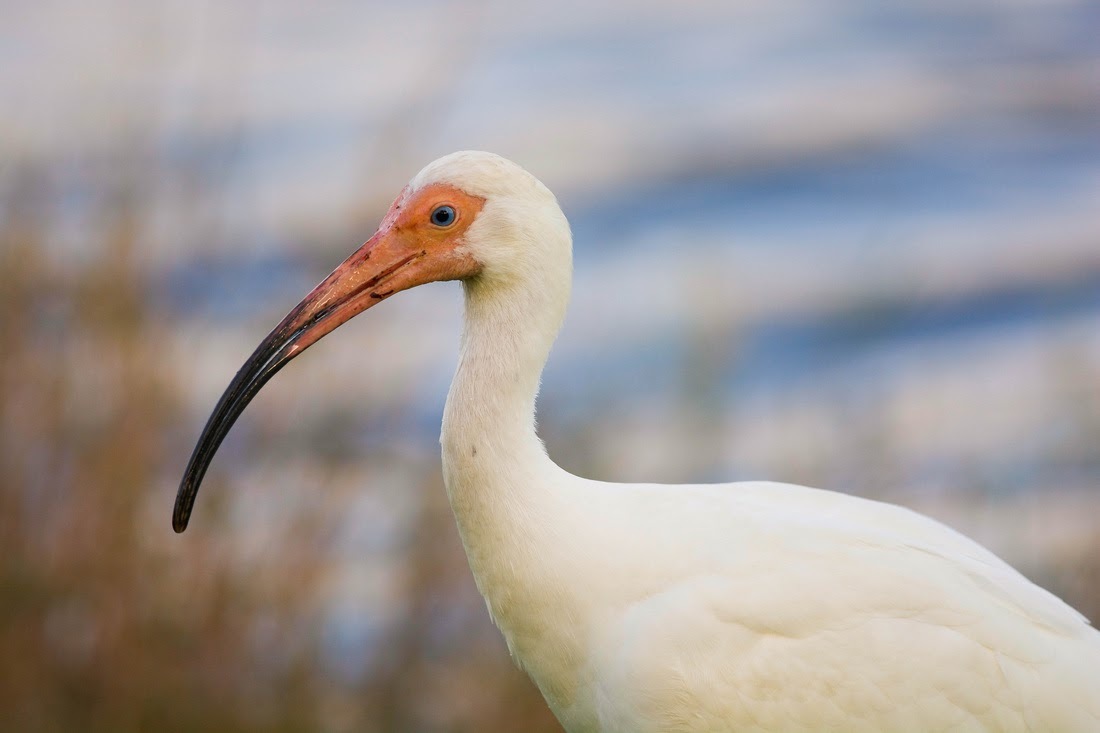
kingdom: Animalia
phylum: Chordata
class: Aves
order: Pelecaniformes
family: Threskiornithidae
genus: Eudocimus
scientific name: Eudocimus albus
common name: White ibis
